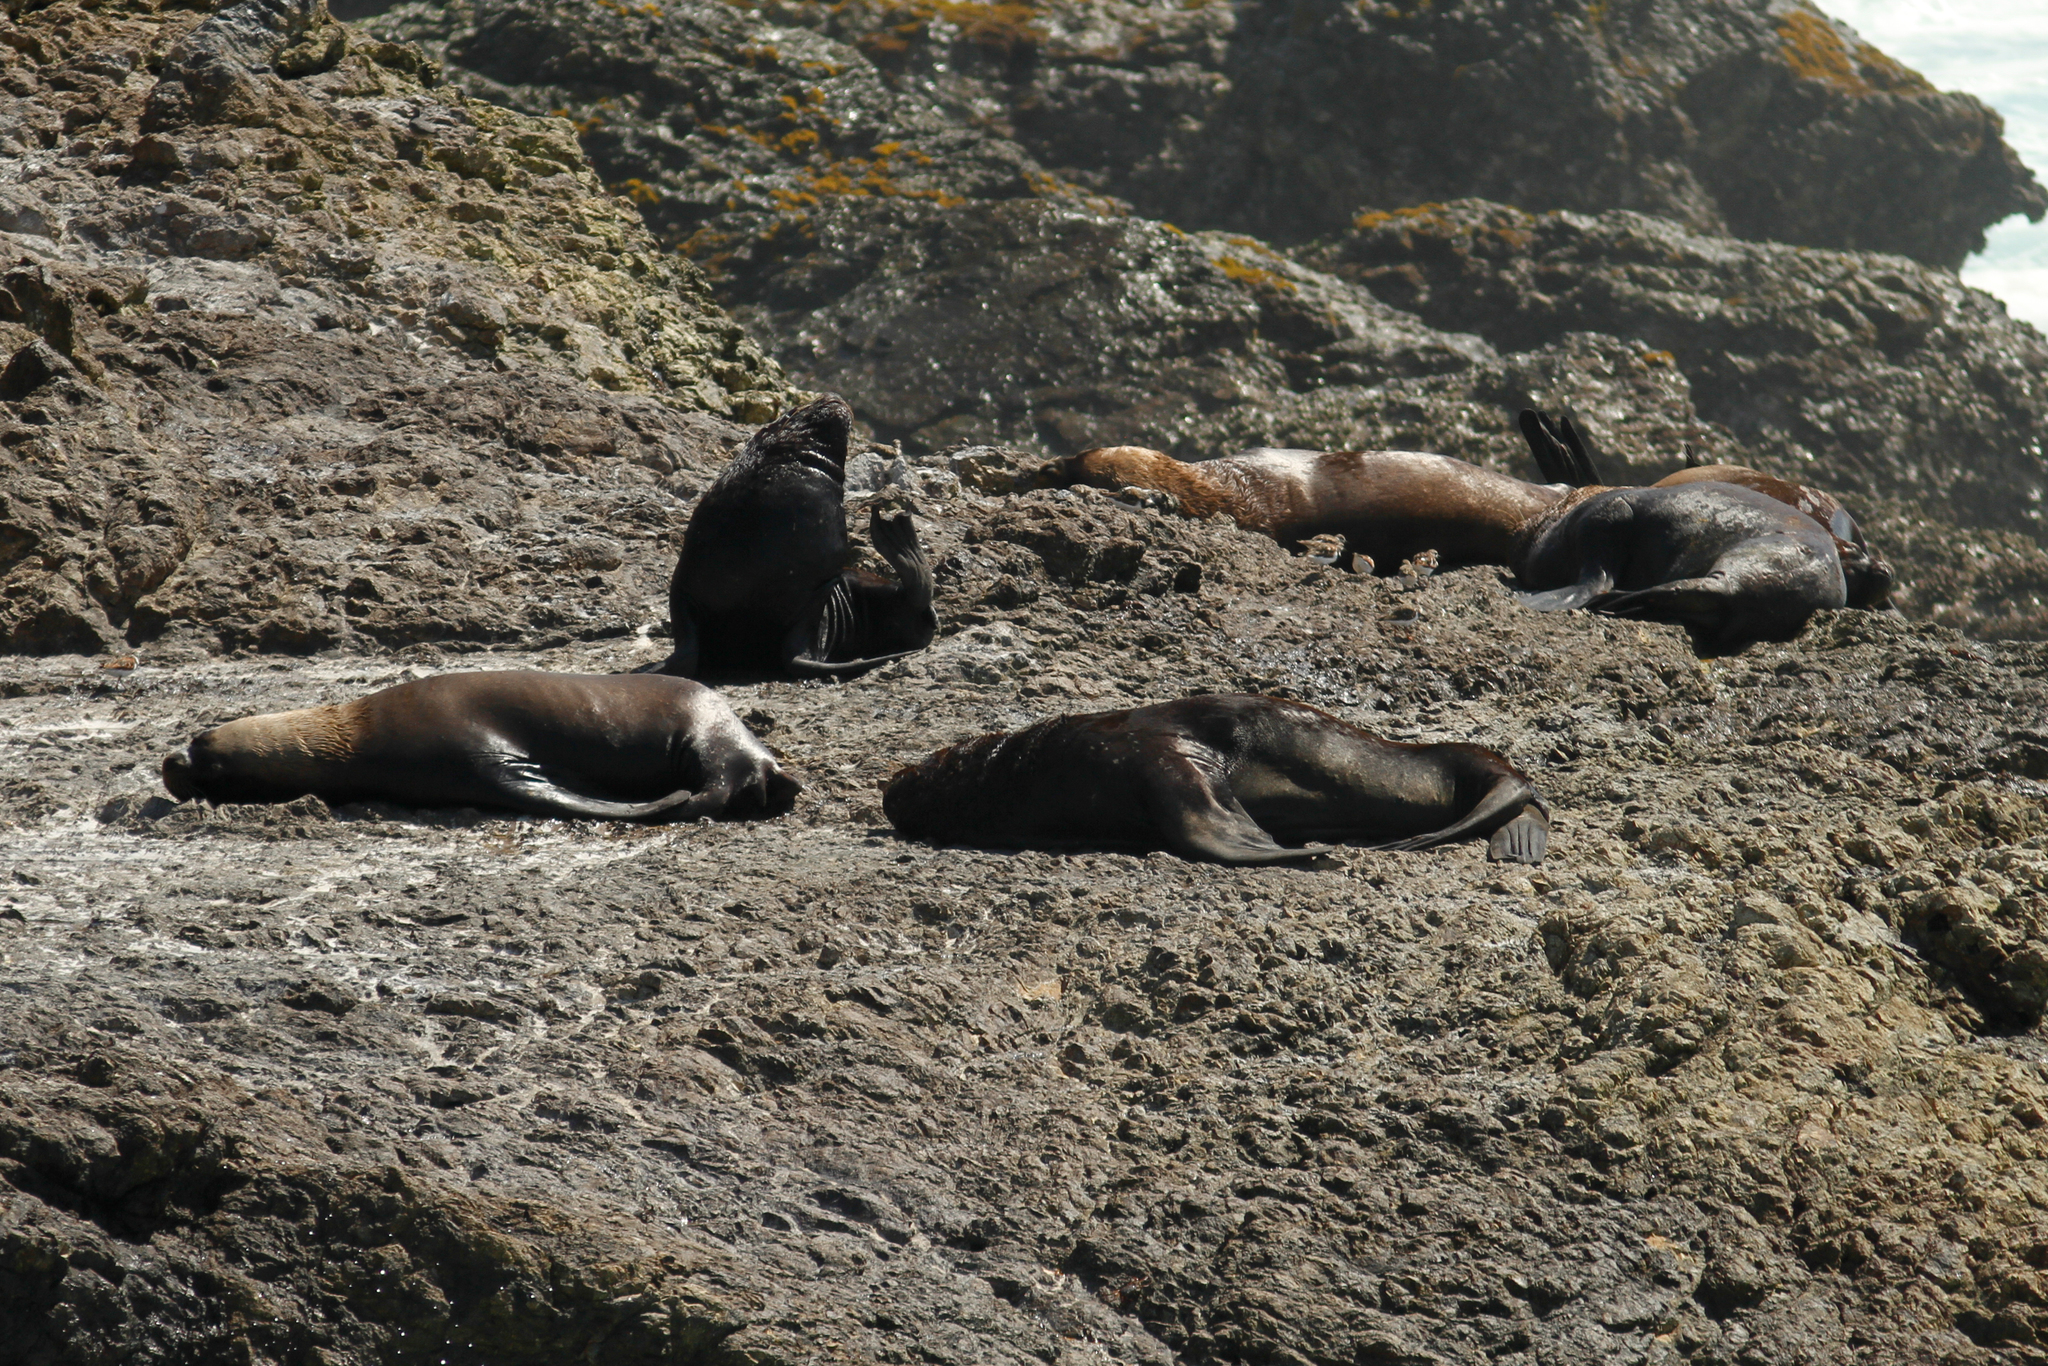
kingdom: Animalia
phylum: Chordata
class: Mammalia
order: Carnivora
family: Otariidae
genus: Otaria
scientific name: Otaria byronia
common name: South american sea lion
